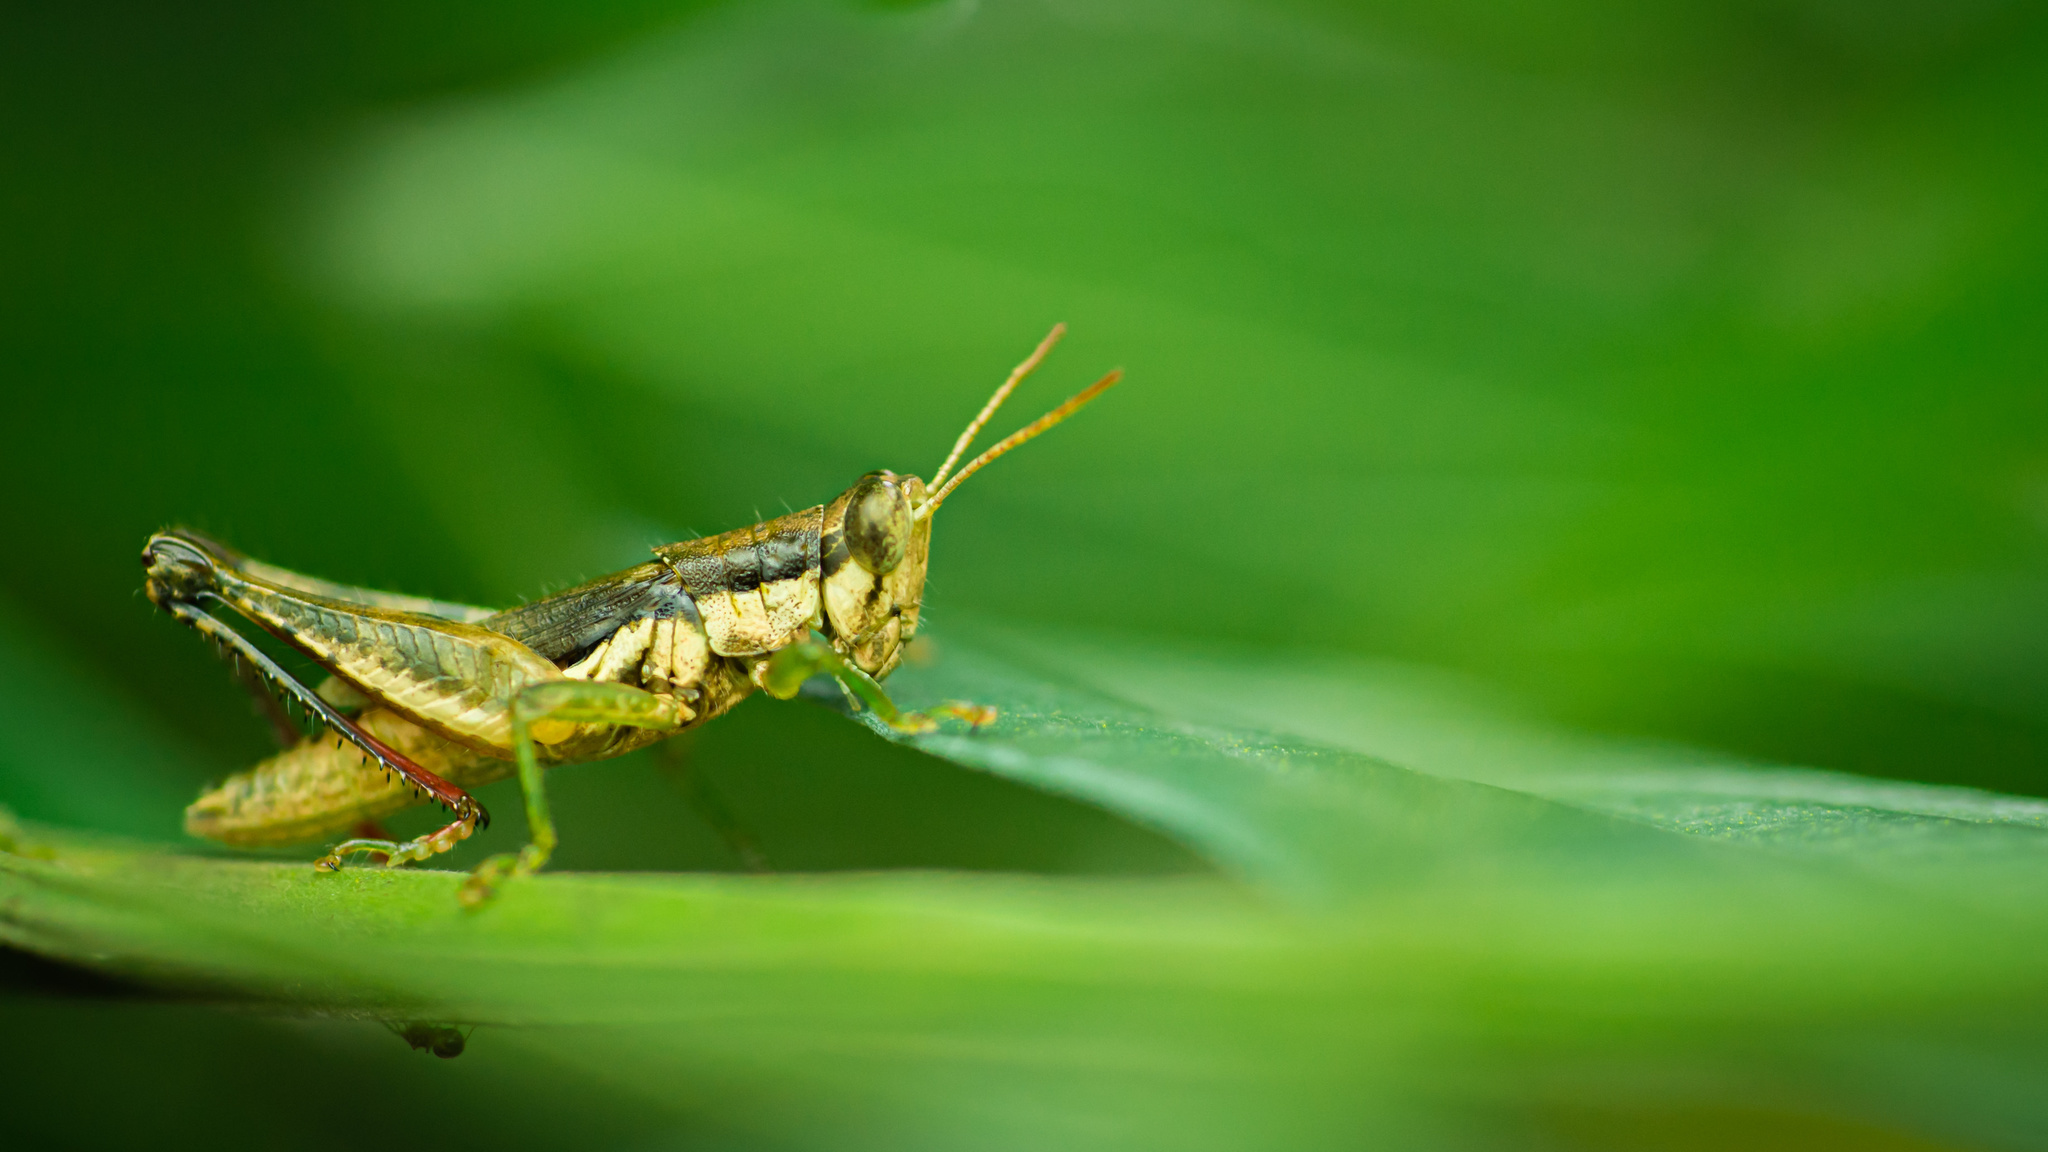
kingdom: Animalia
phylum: Arthropoda
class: Insecta
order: Orthoptera
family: Acrididae
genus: Pseudoxya
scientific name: Pseudoxya diminuta
